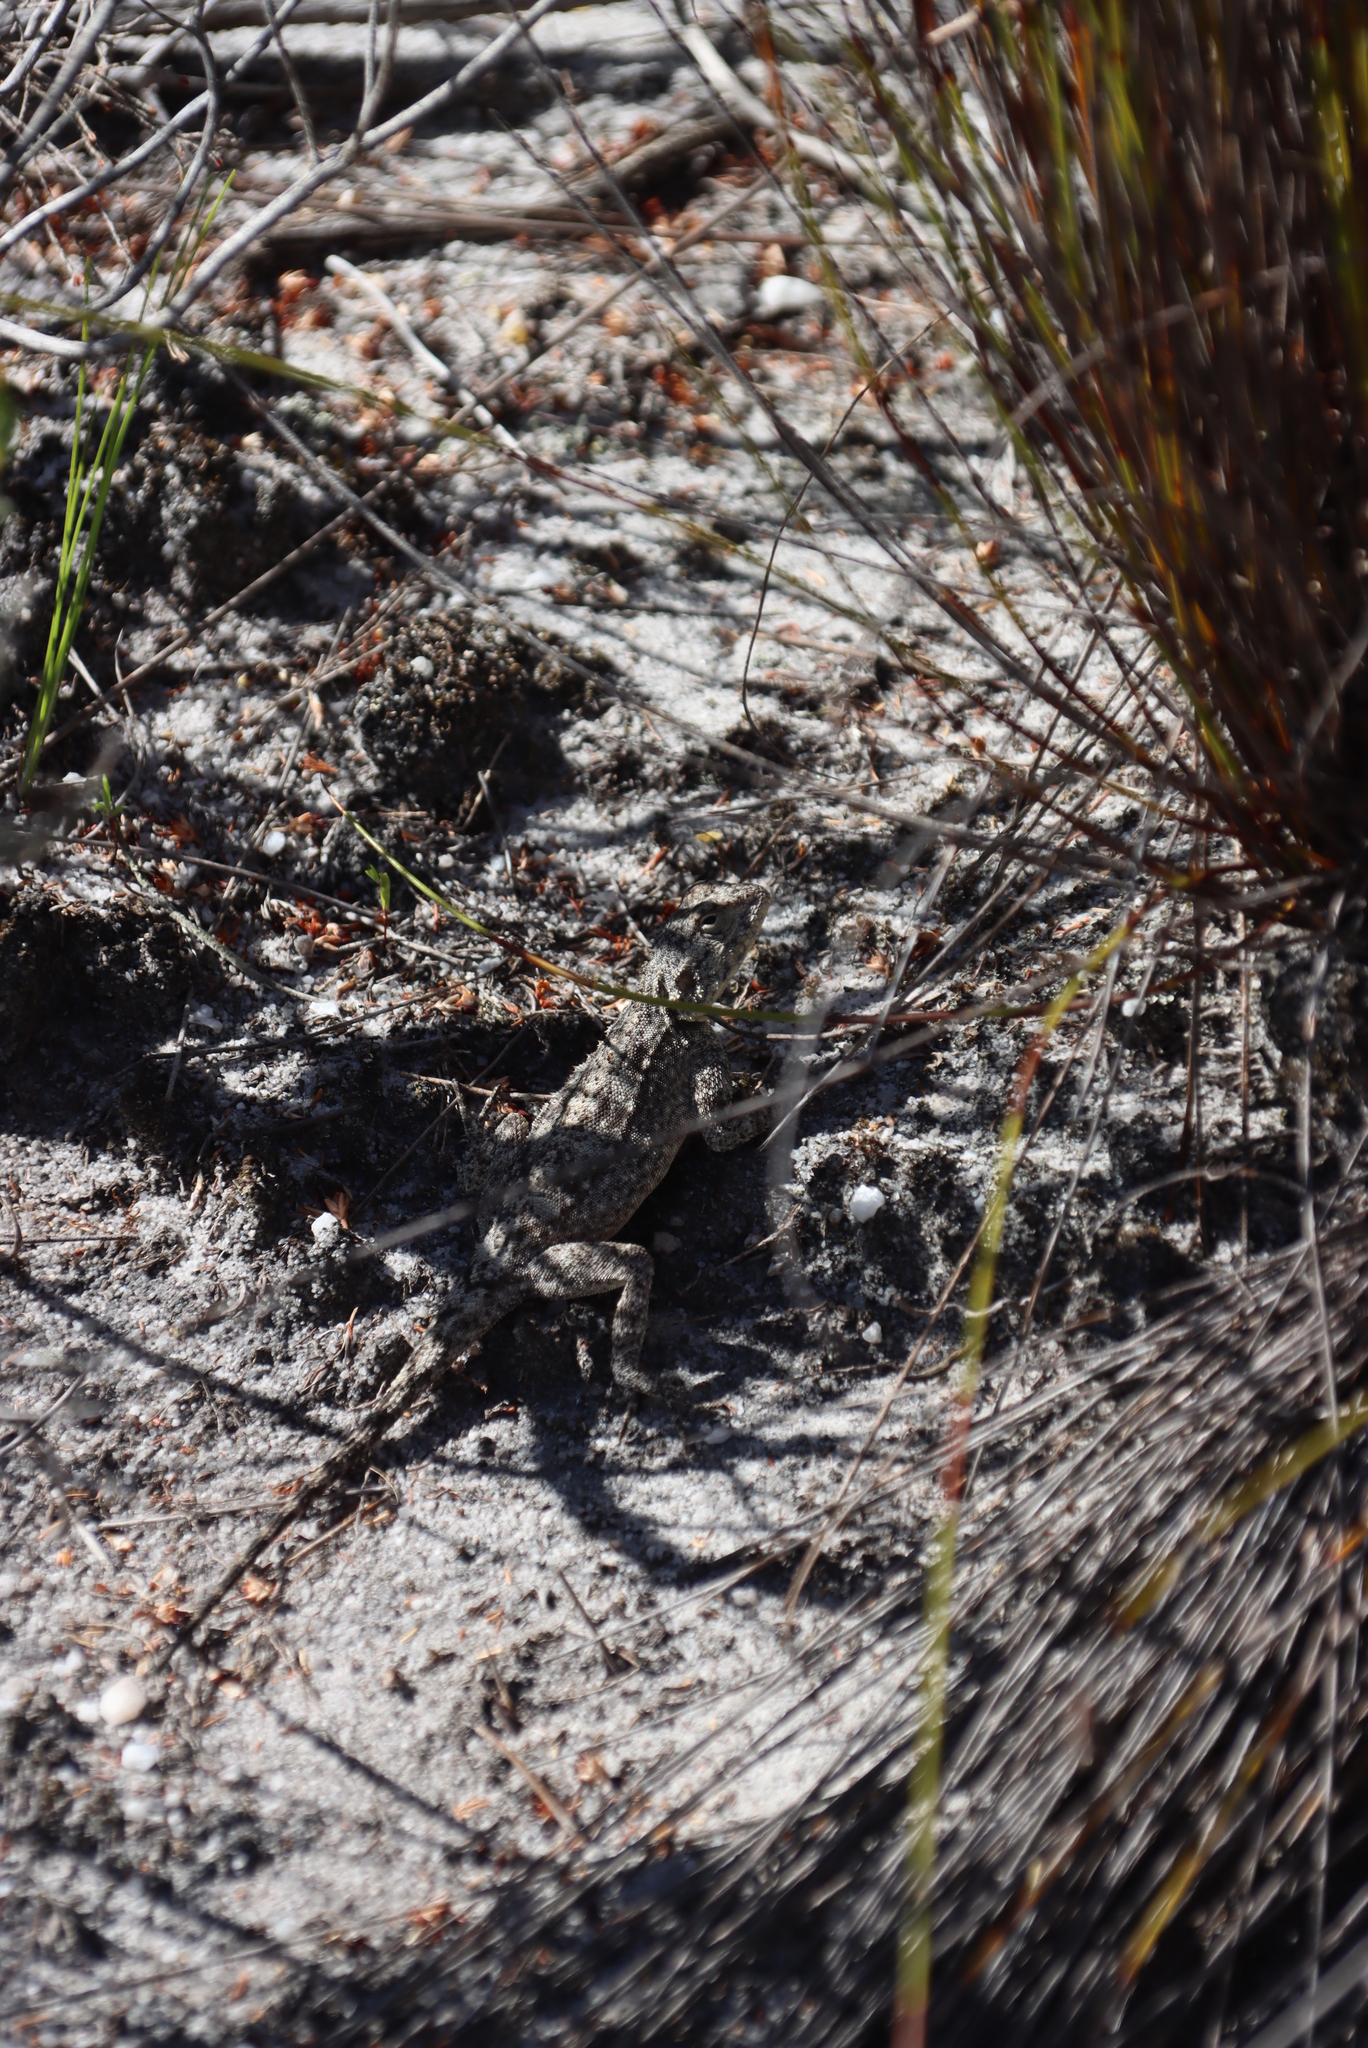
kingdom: Animalia
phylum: Chordata
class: Squamata
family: Agamidae
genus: Agama
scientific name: Agama atra
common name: Southern african rock agama
